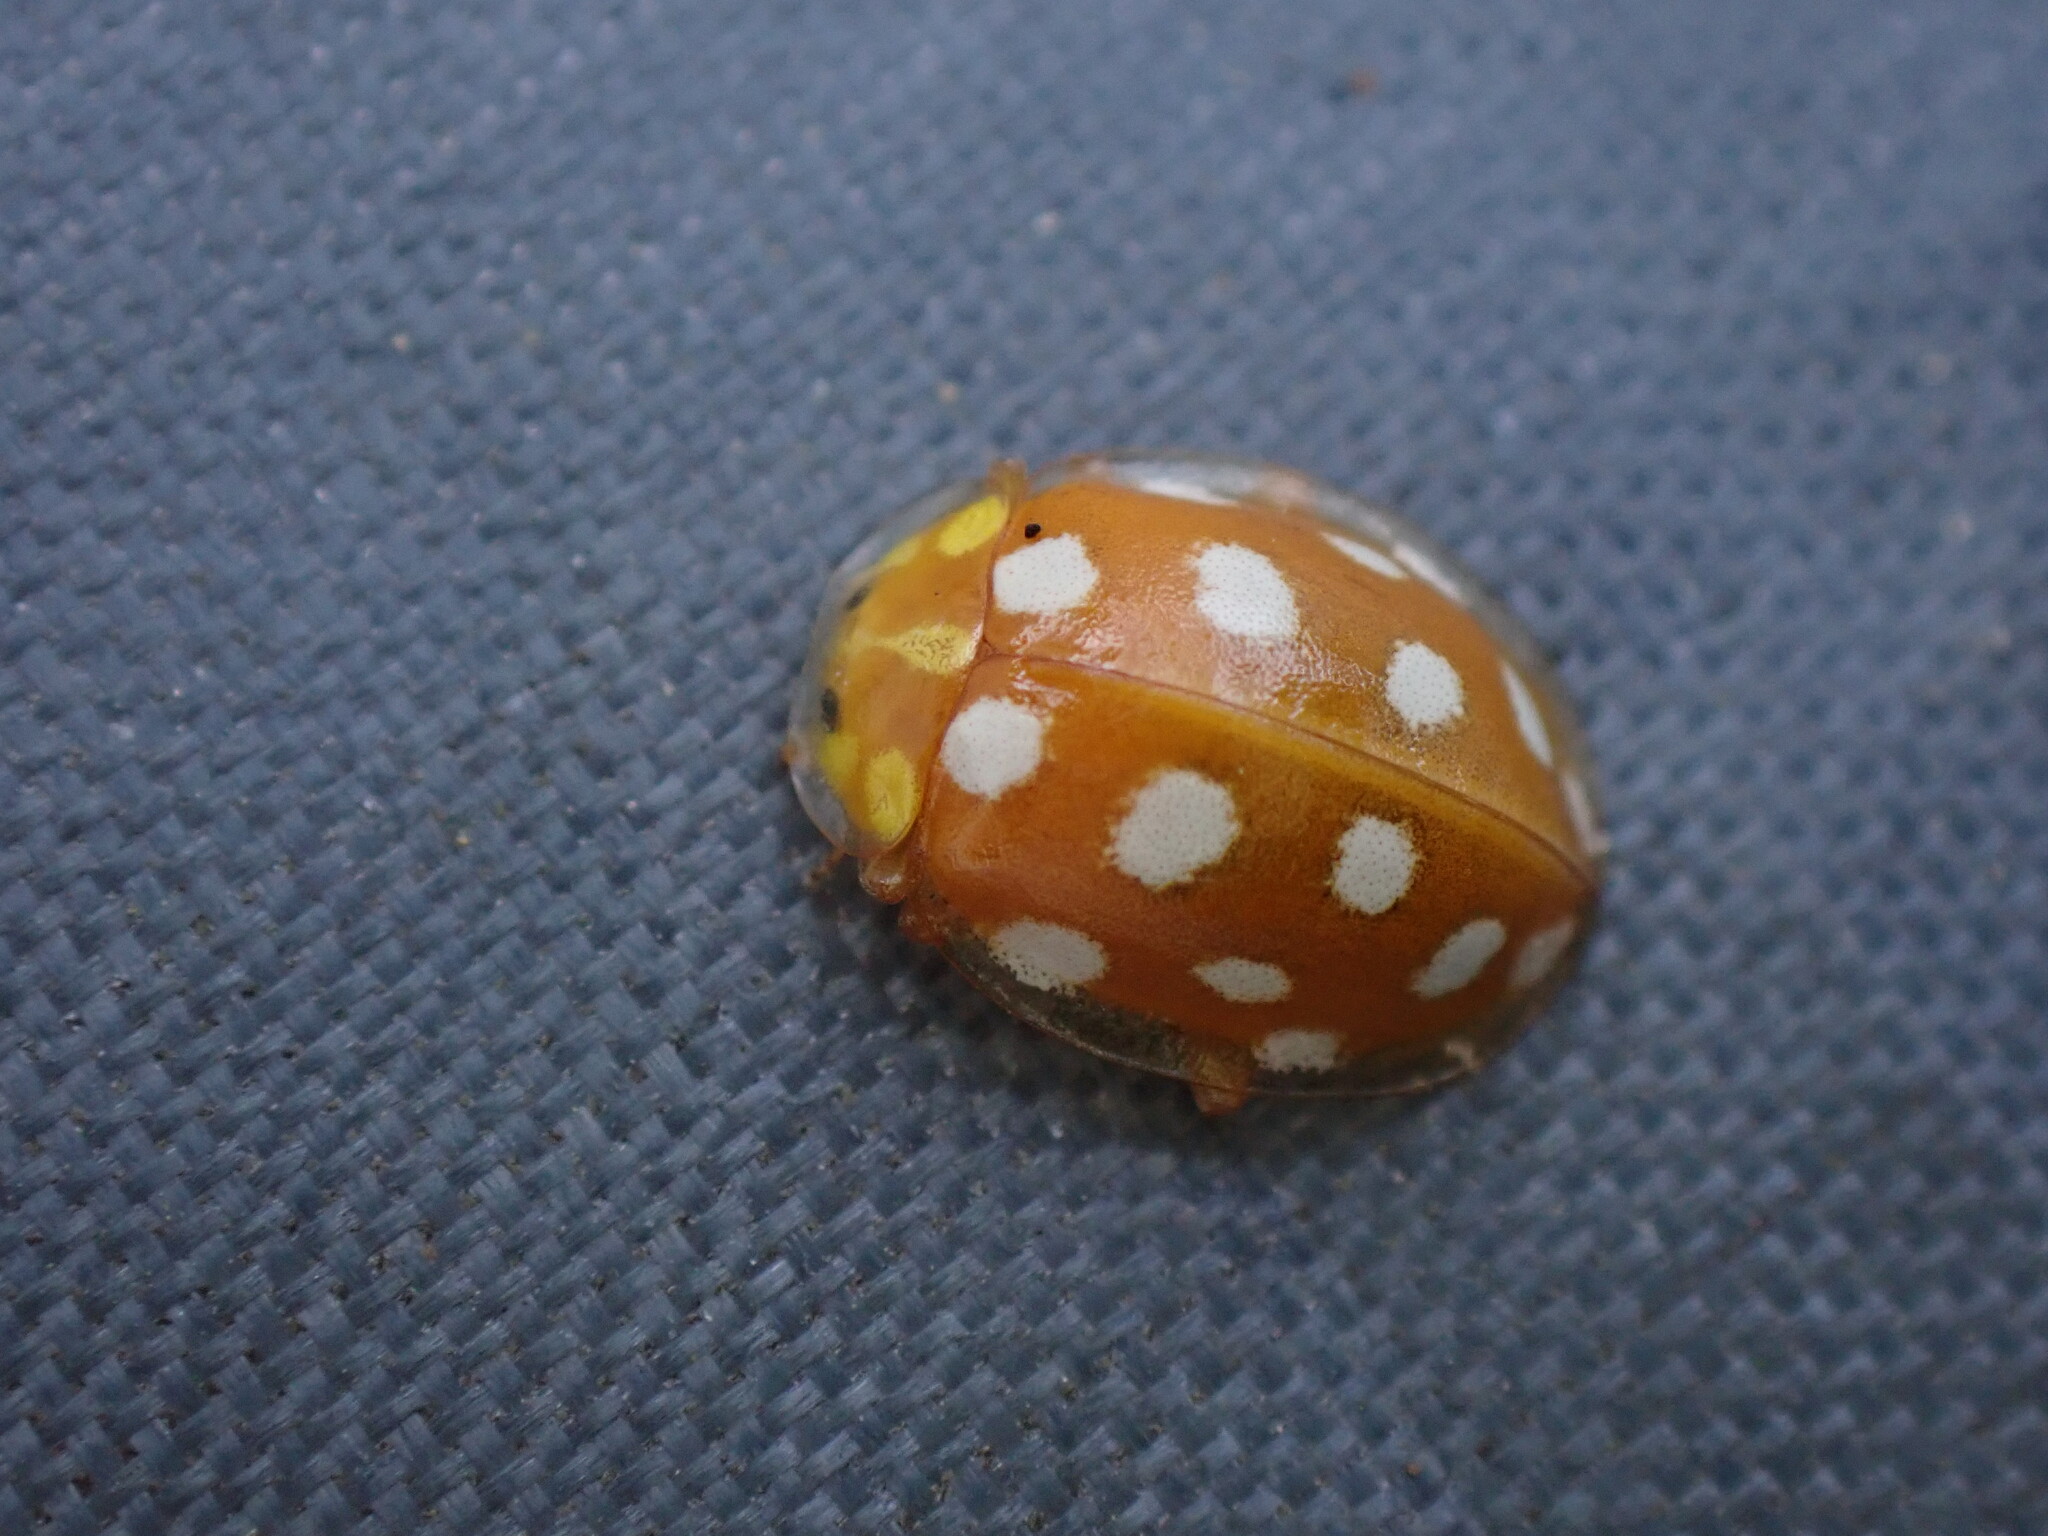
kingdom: Animalia
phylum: Arthropoda
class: Insecta
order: Coleoptera
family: Coccinellidae
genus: Halyzia
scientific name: Halyzia sedecimguttata
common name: Orange ladybird
